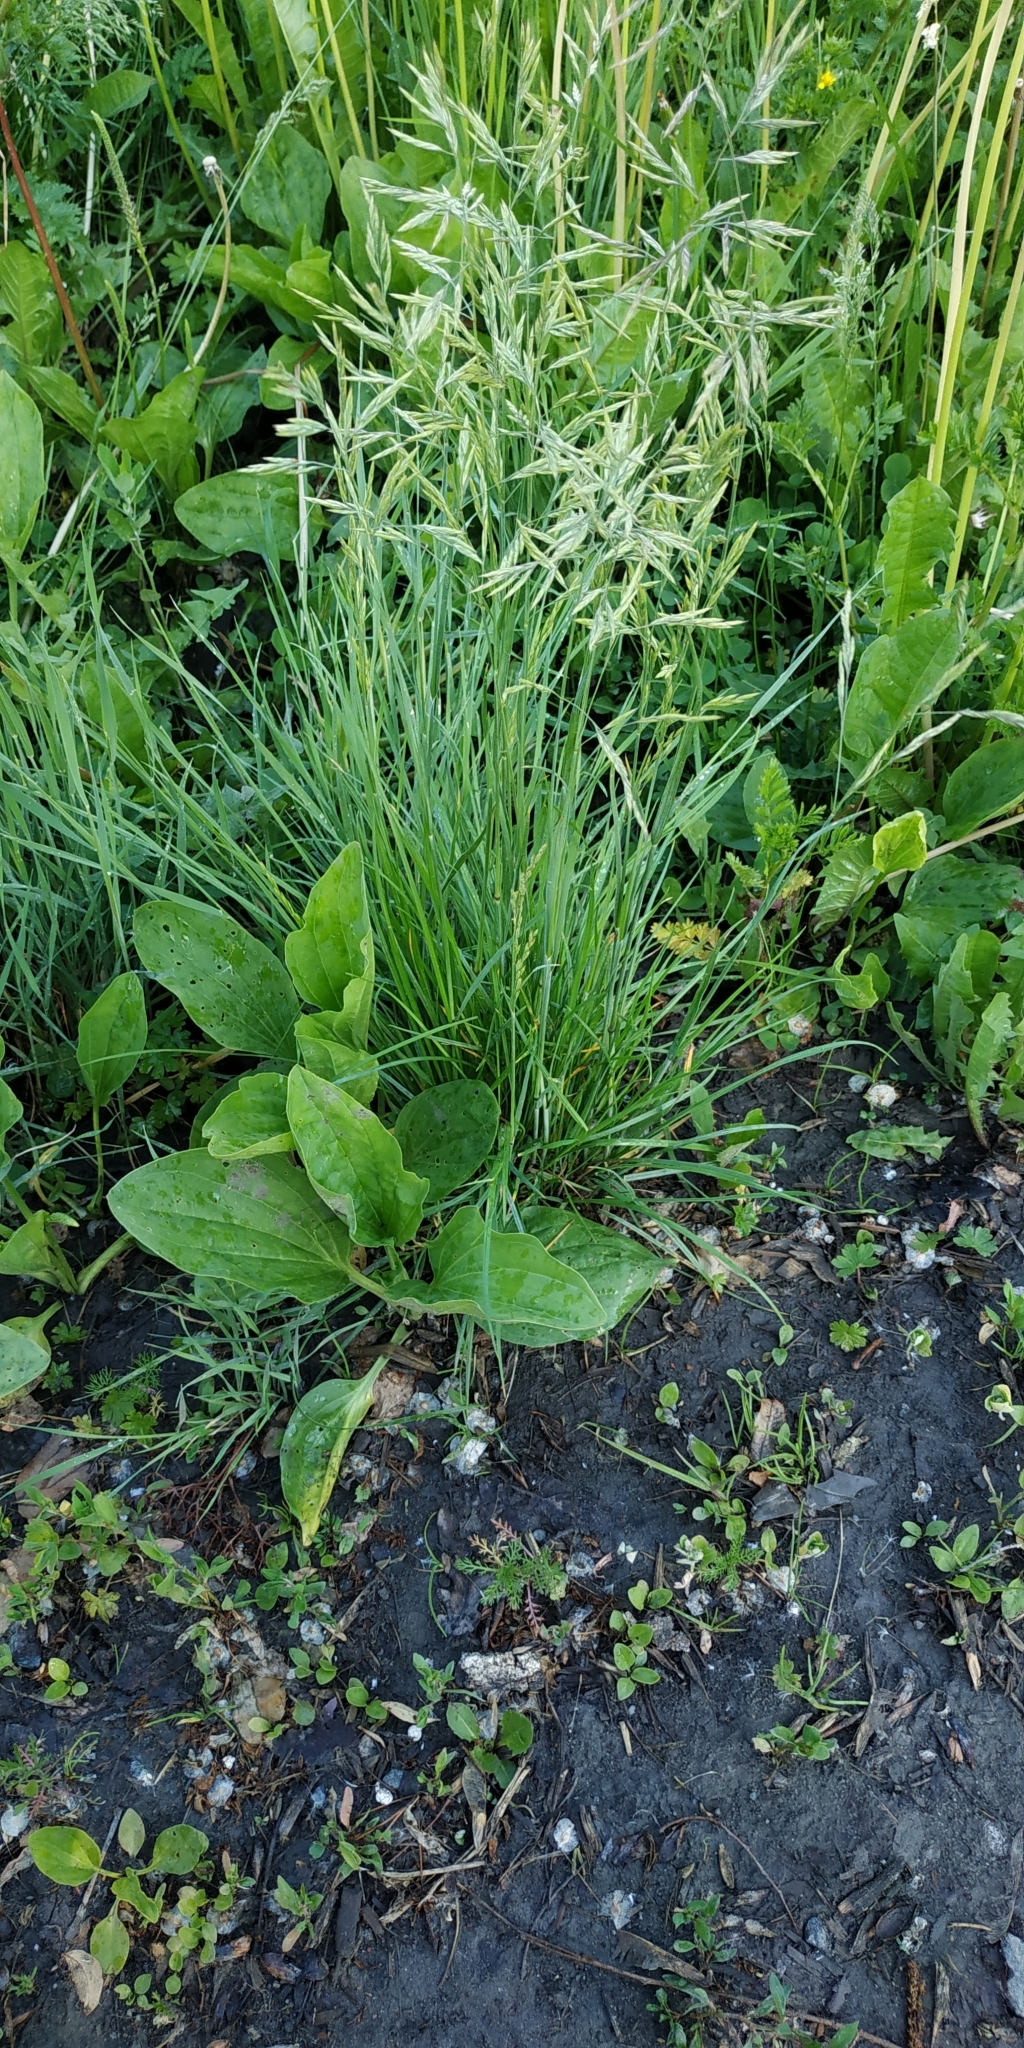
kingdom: Plantae
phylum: Tracheophyta
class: Liliopsida
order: Poales
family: Poaceae
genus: Bromus
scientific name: Bromus inermis
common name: Smooth brome
